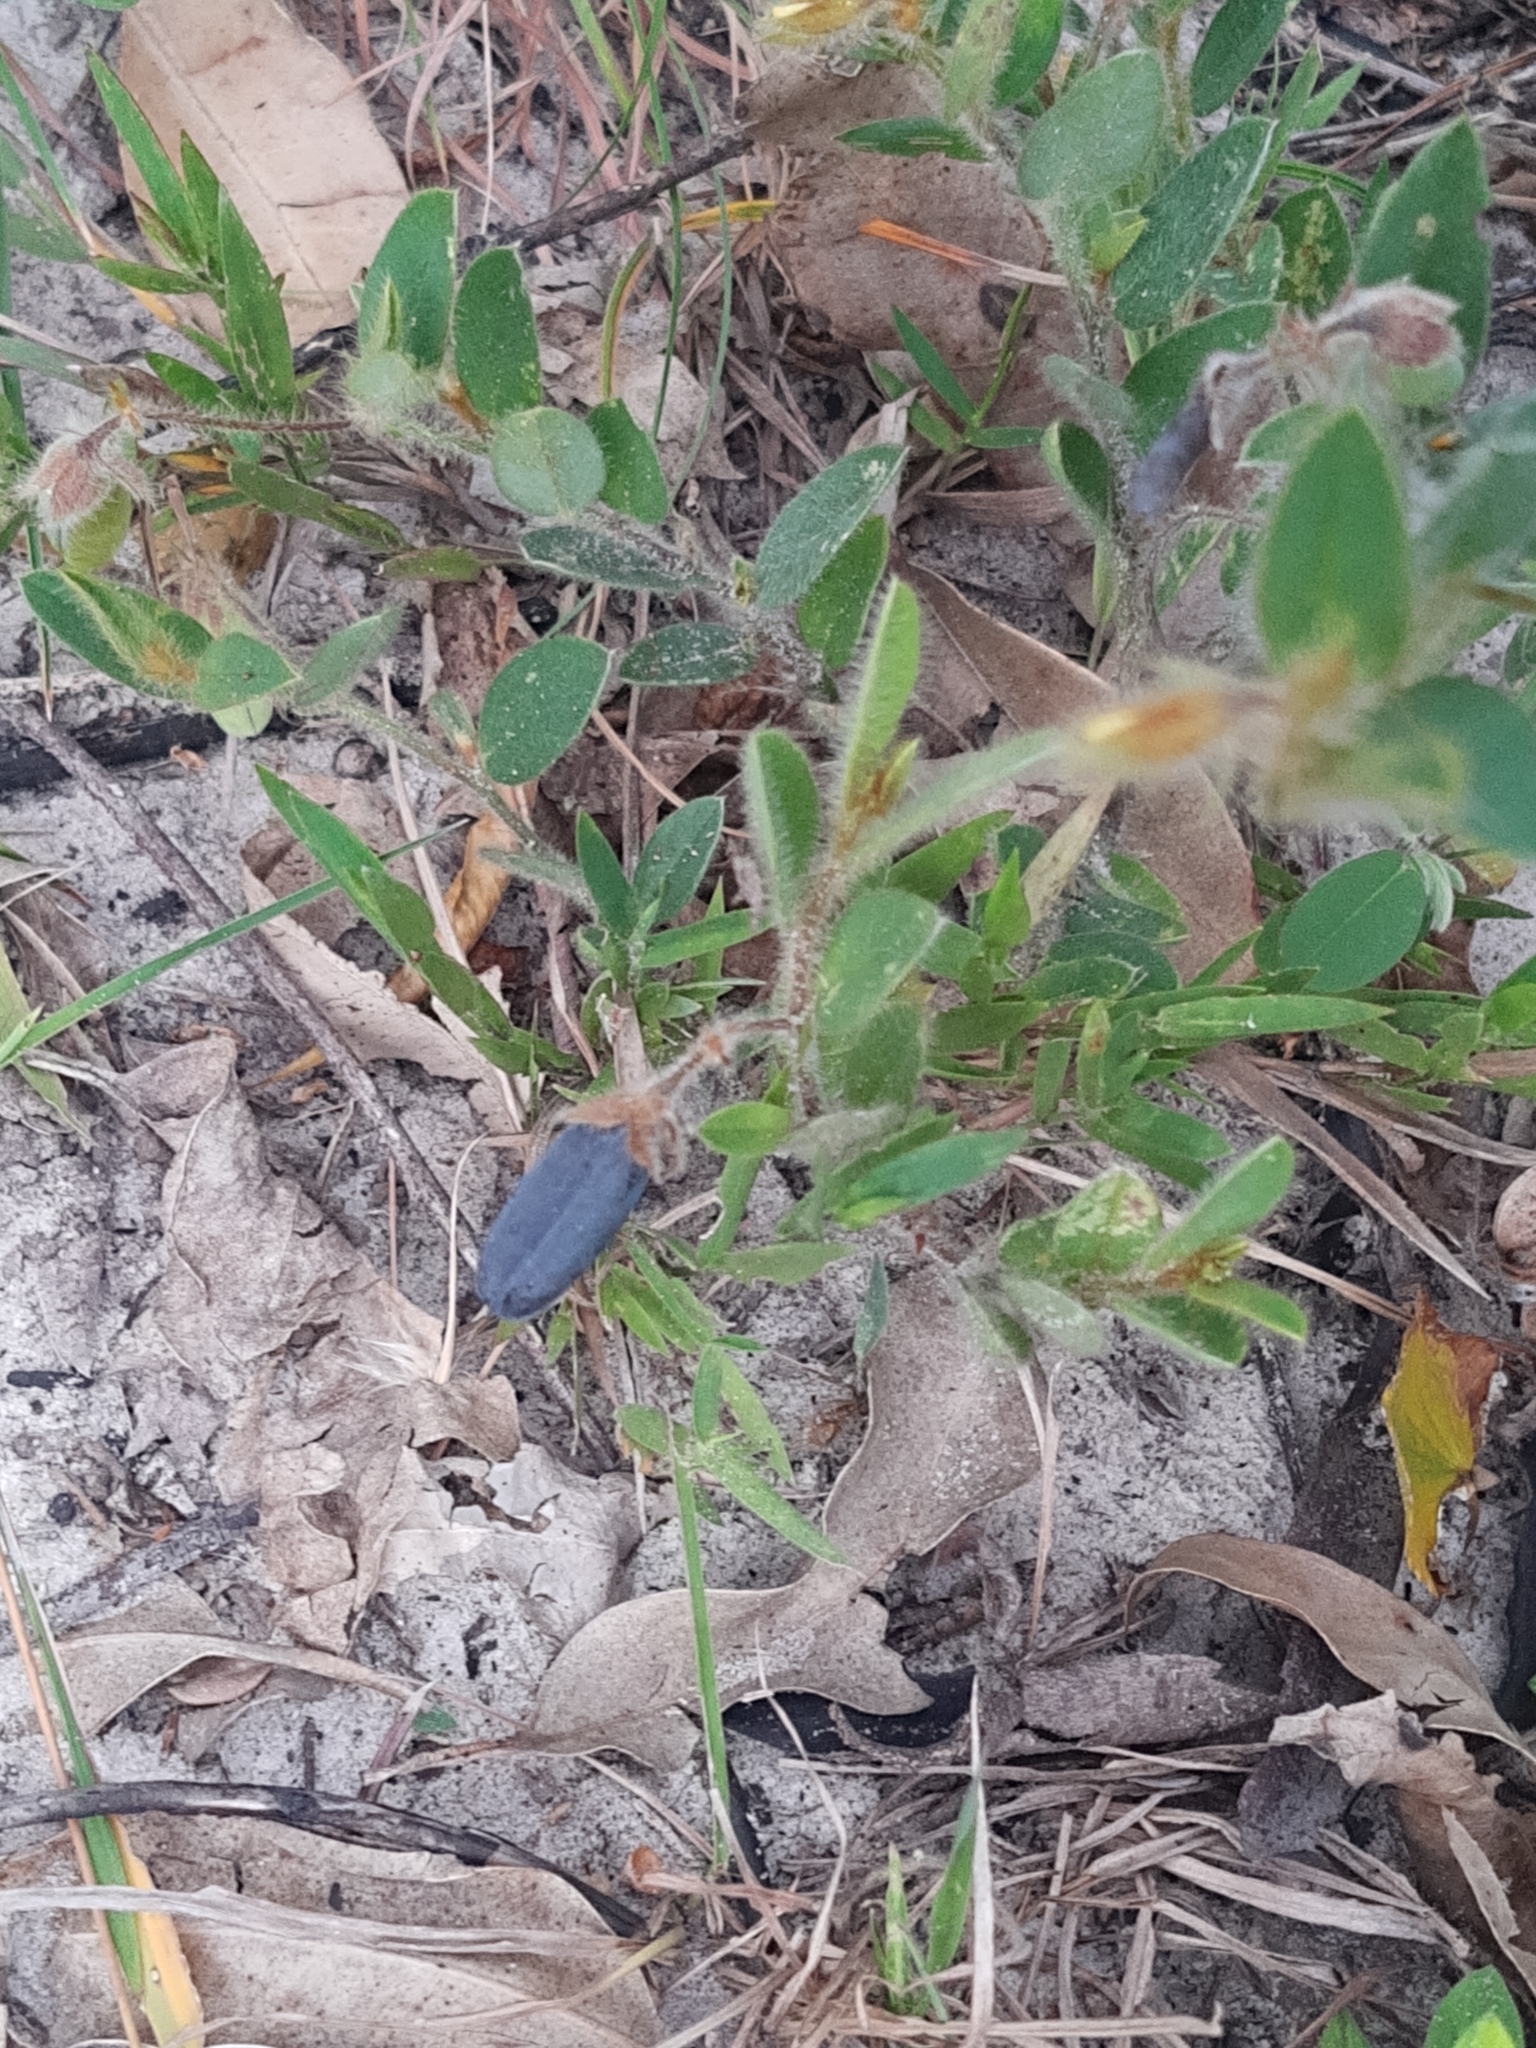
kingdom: Plantae
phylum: Tracheophyta
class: Magnoliopsida
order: Fabales
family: Fabaceae
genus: Crotalaria
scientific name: Crotalaria hilariana
